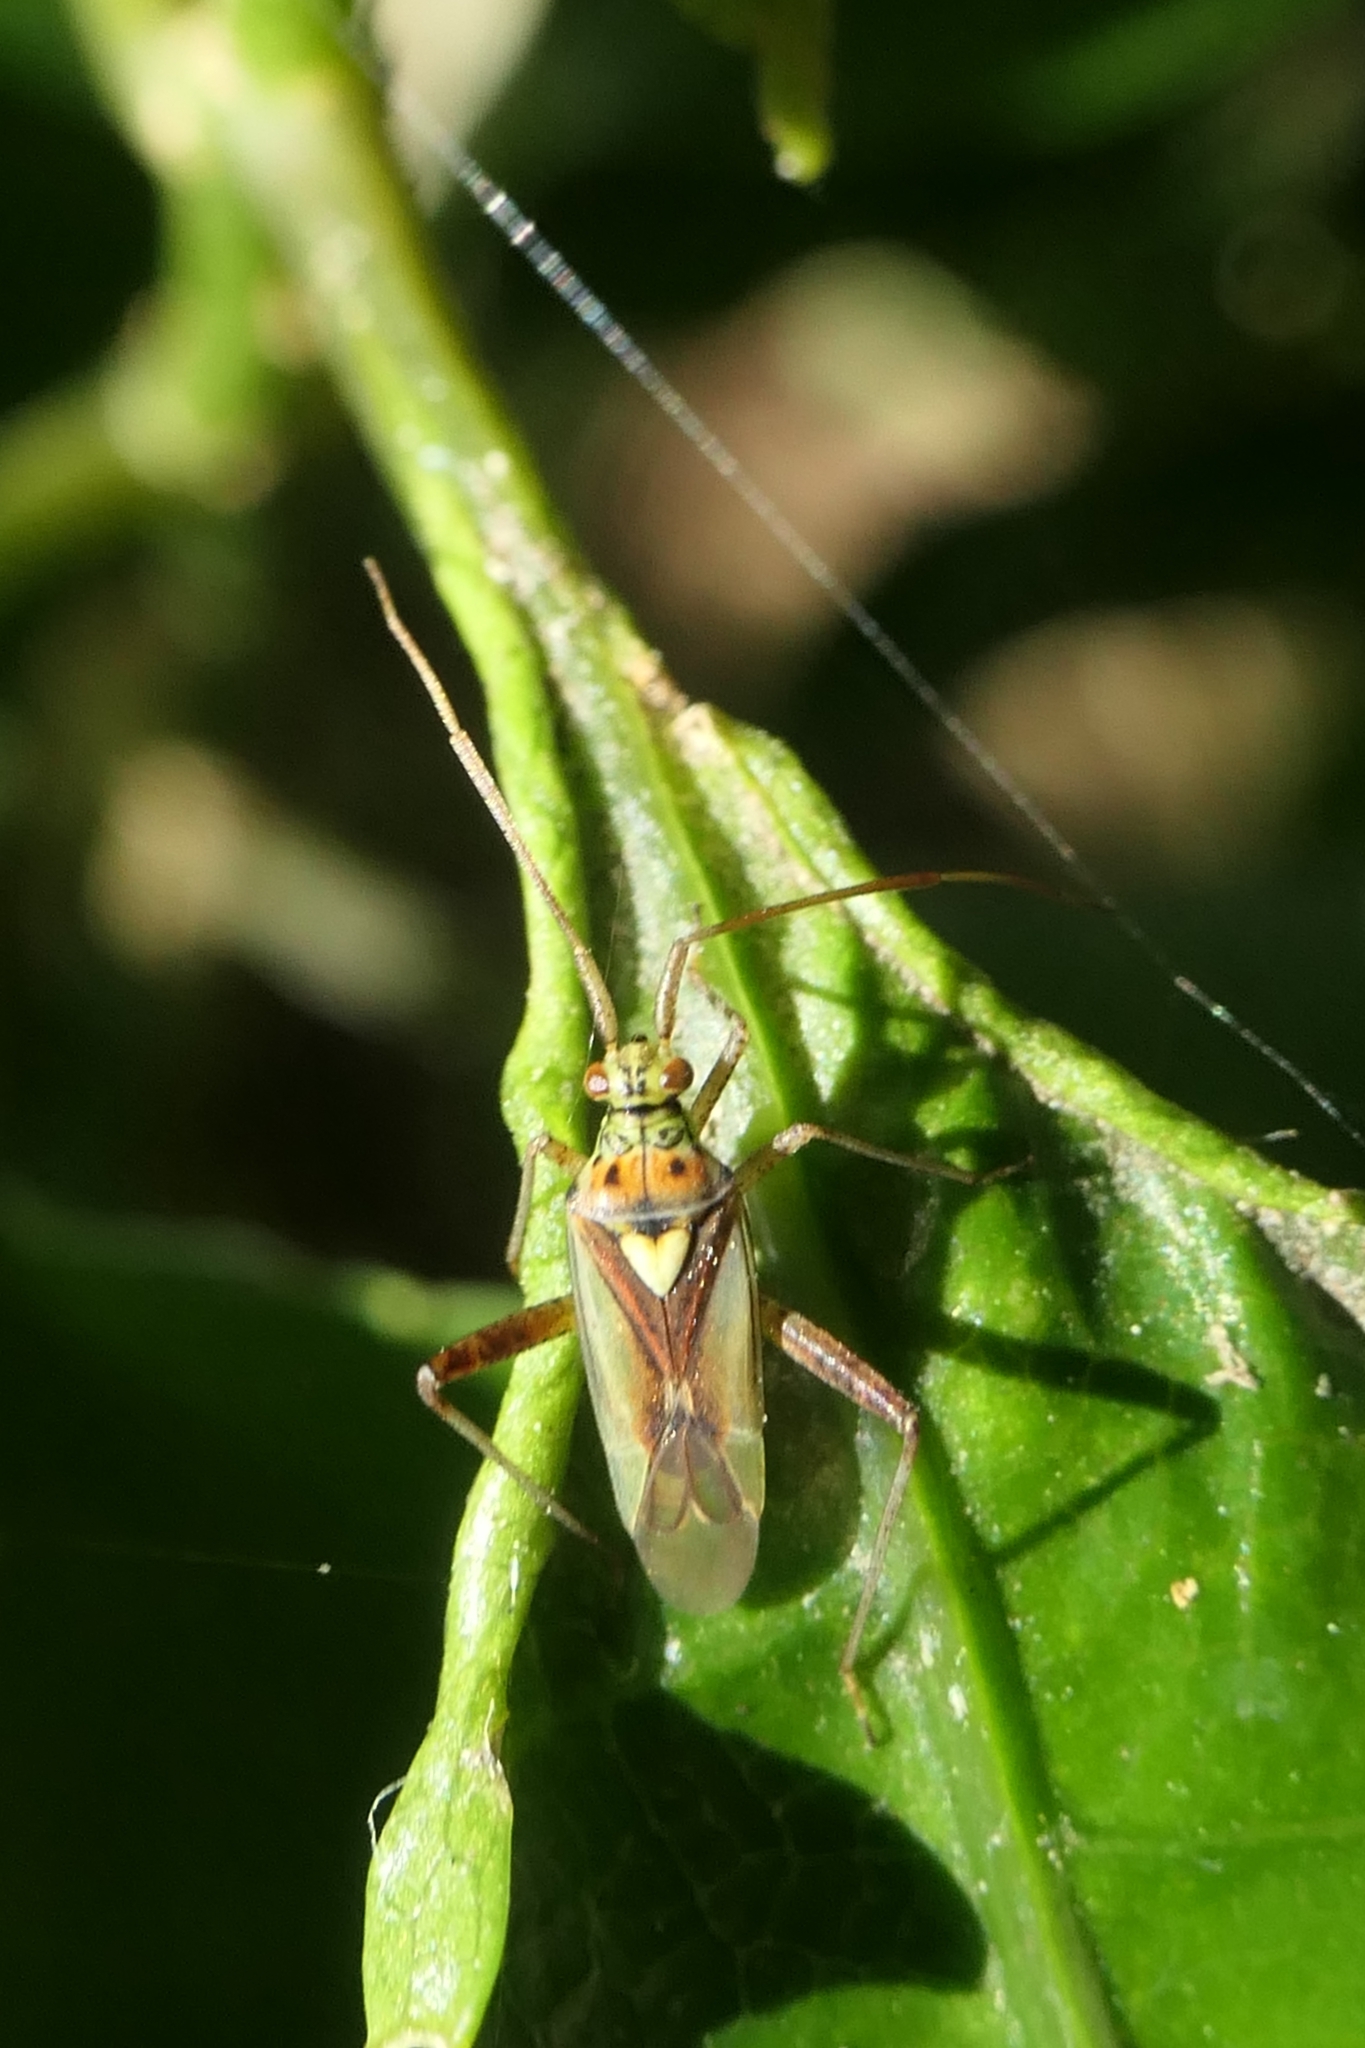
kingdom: Animalia
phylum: Arthropoda
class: Insecta
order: Hemiptera
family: Miridae
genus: Lincolnia
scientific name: Lincolnia lucernina
